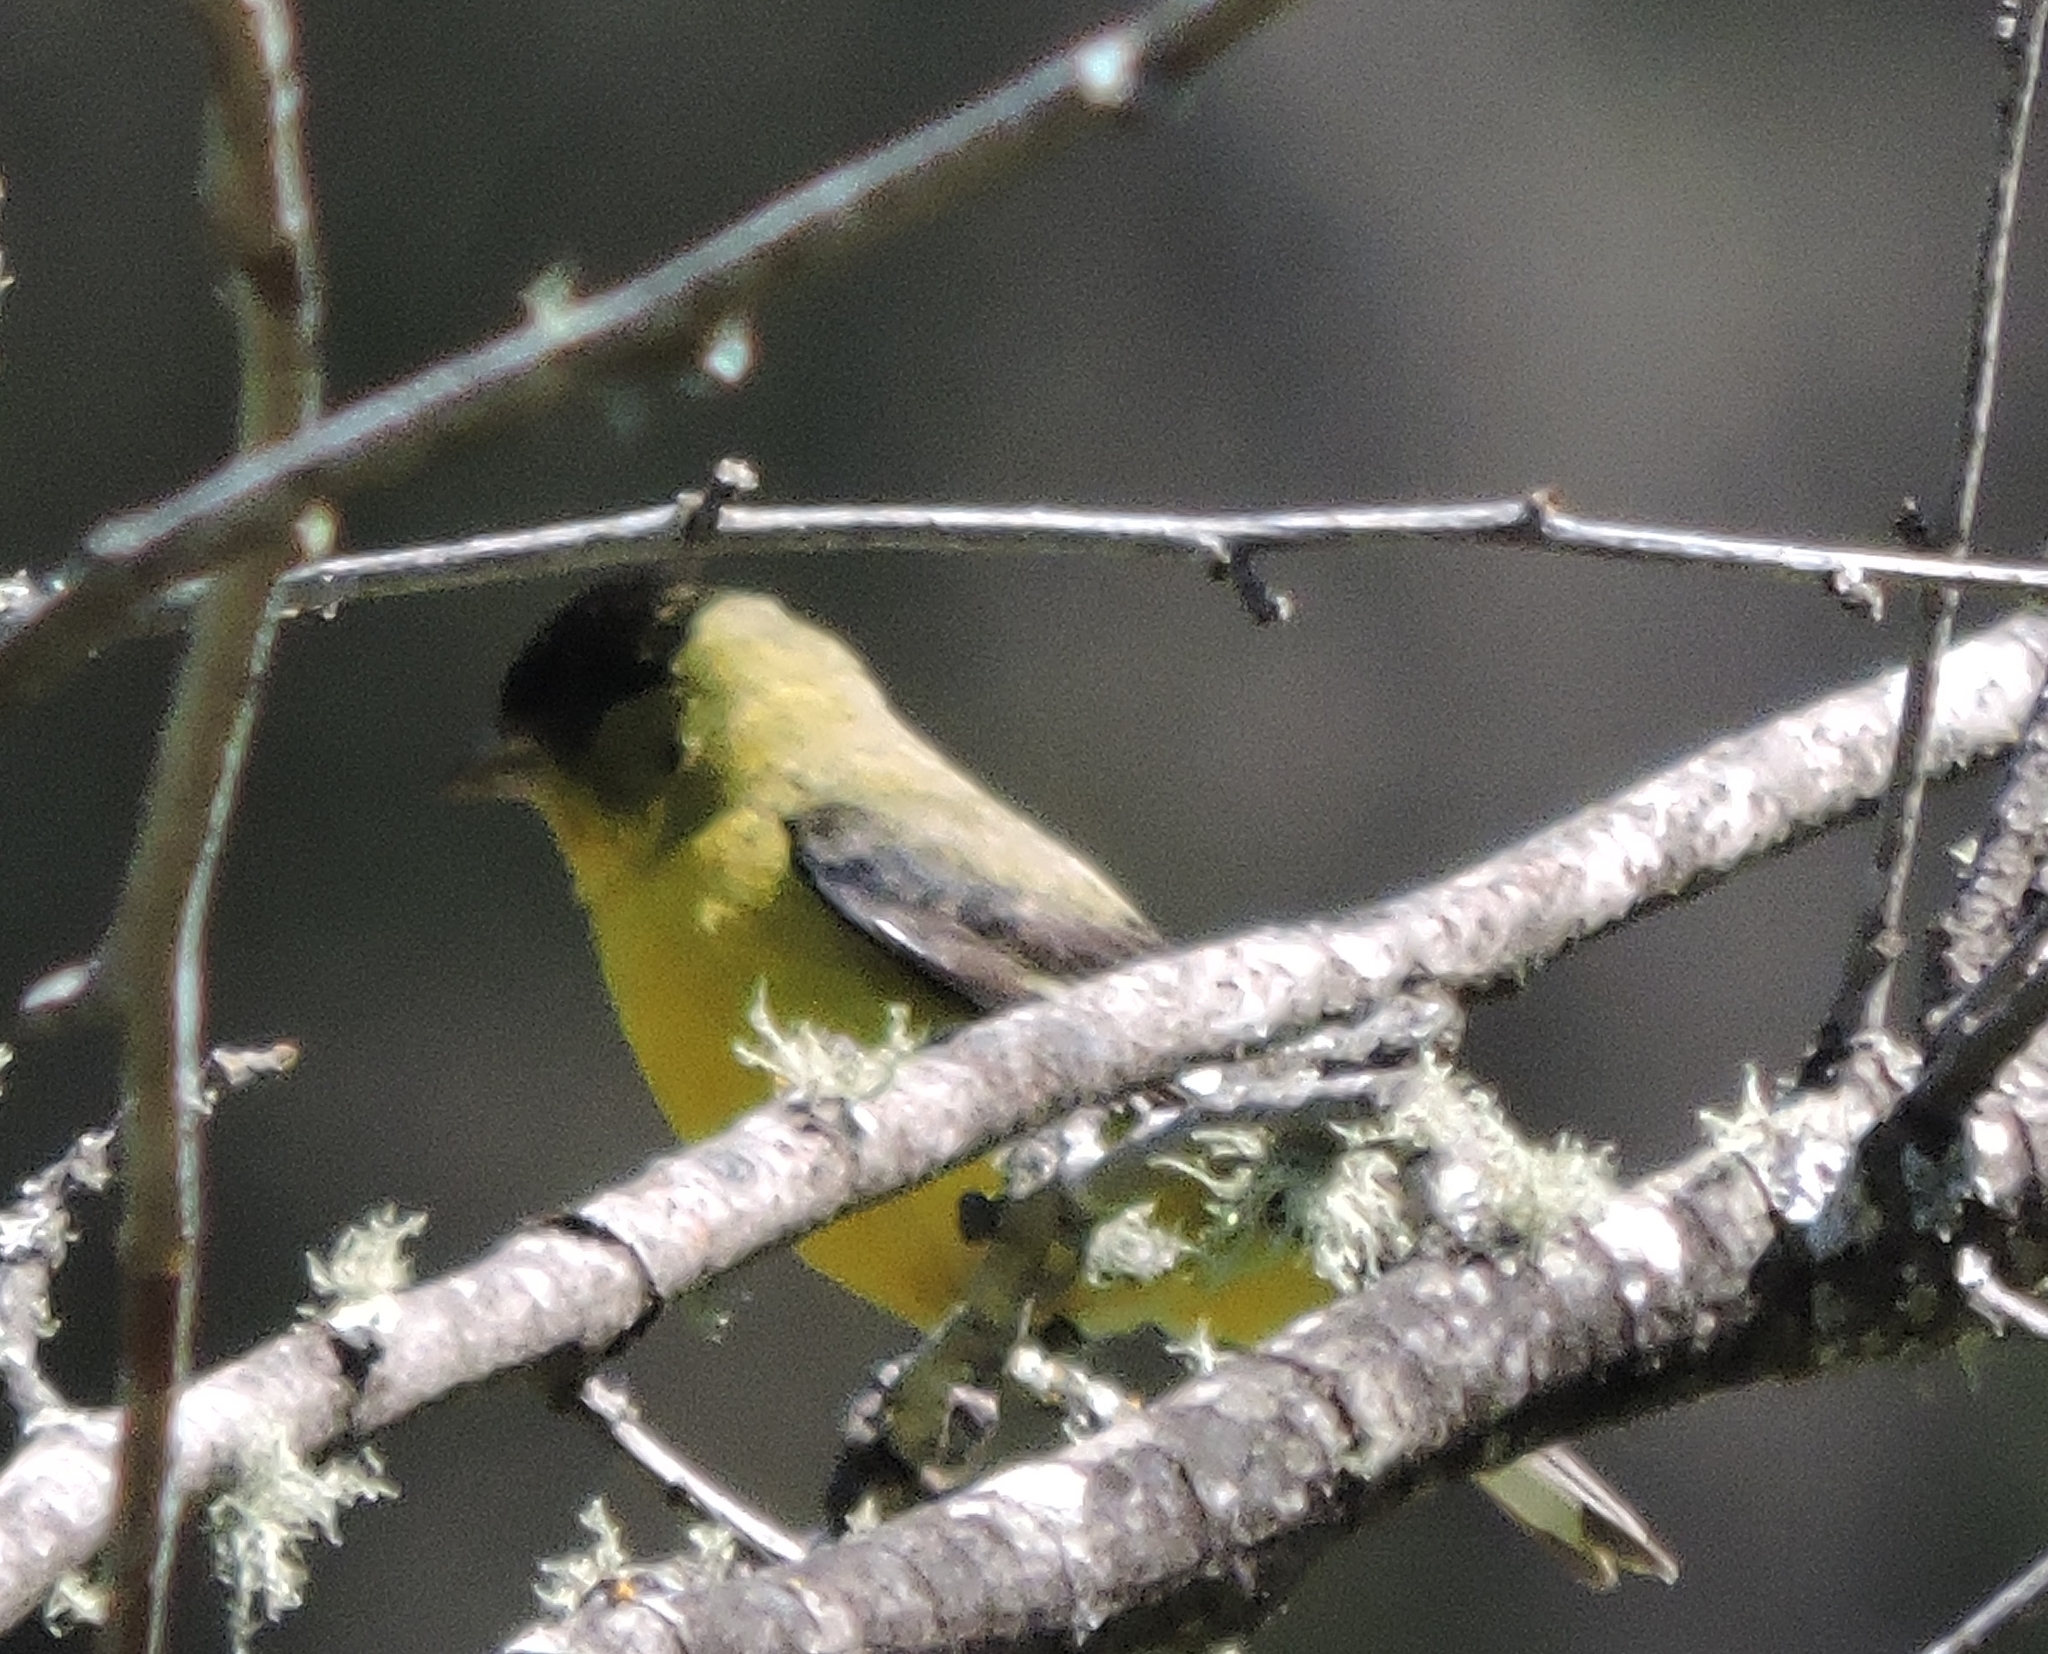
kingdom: Animalia
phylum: Chordata
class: Aves
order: Passeriformes
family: Fringillidae
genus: Spinus
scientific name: Spinus psaltria
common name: Lesser goldfinch
